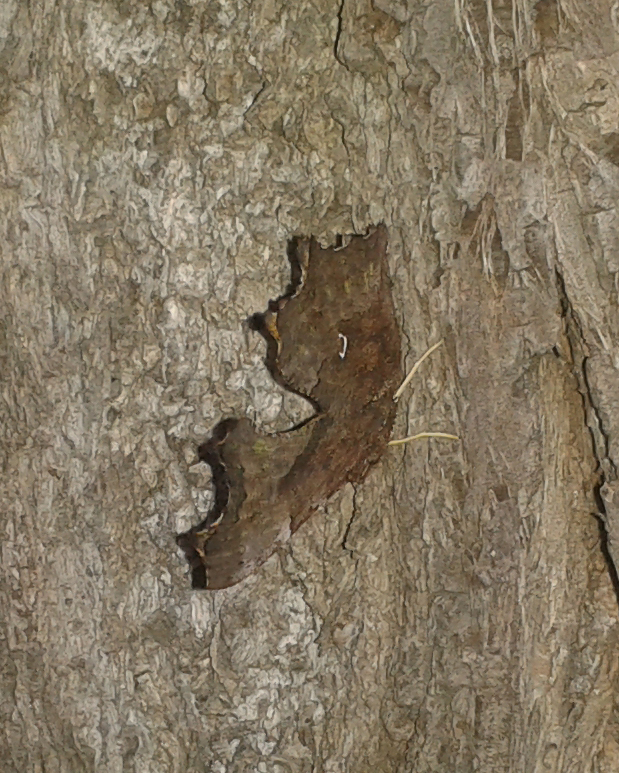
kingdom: Animalia
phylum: Arthropoda
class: Insecta
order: Lepidoptera
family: Nymphalidae
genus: Polygonia
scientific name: Polygonia c-album
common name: Comma
